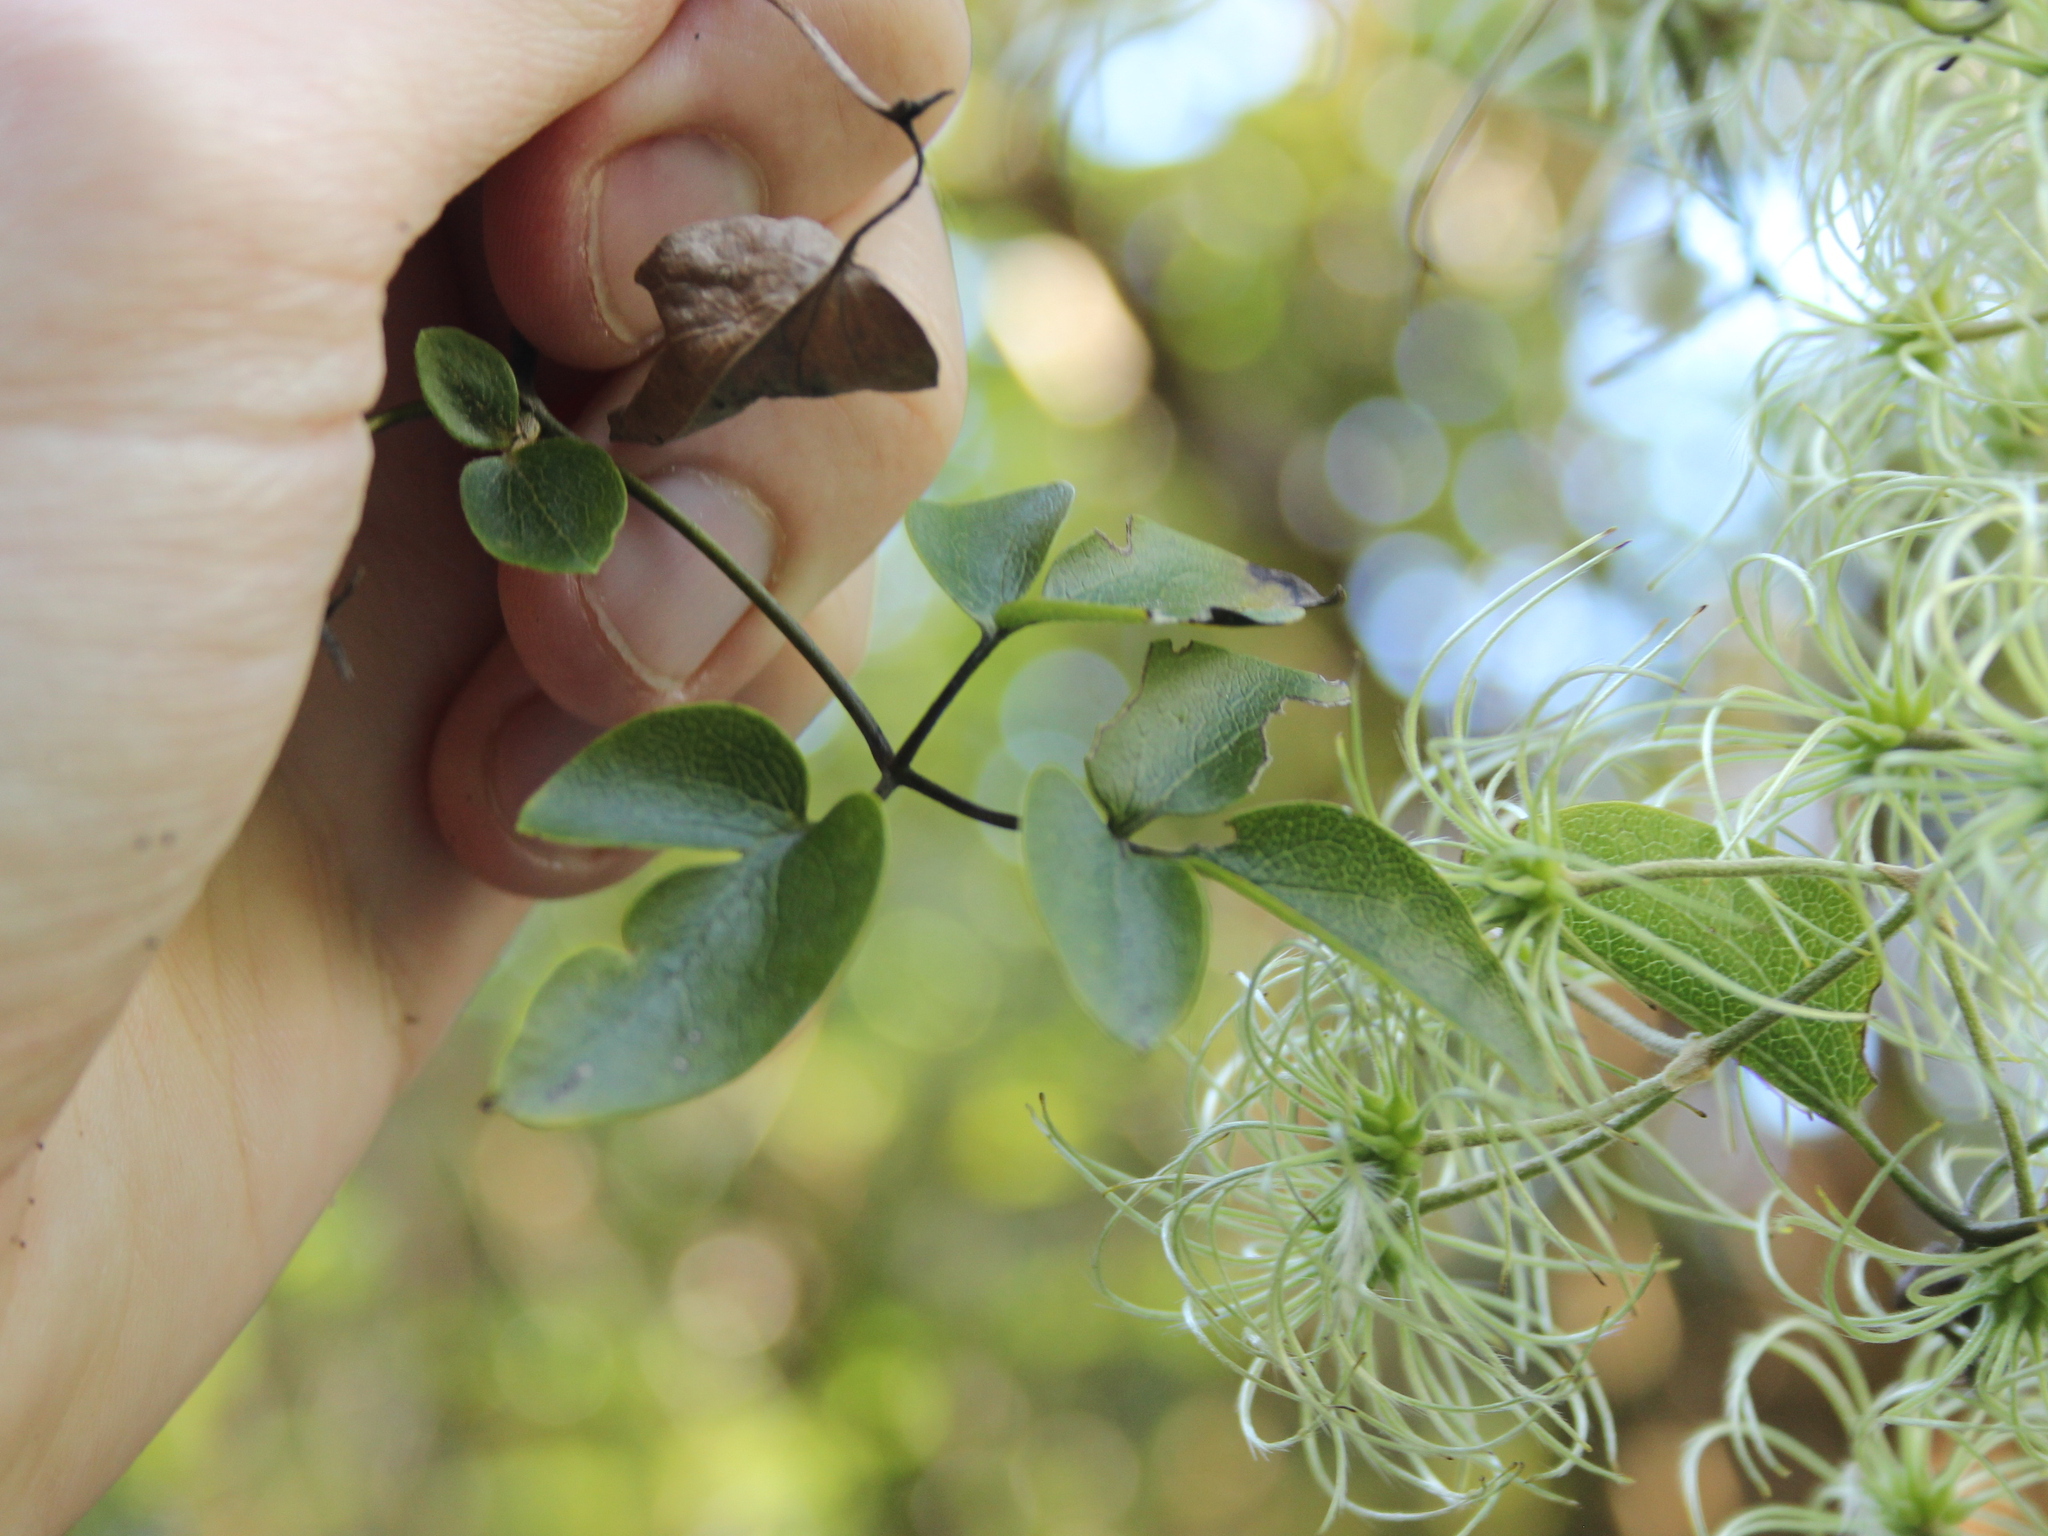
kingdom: Plantae
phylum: Tracheophyta
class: Magnoliopsida
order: Ranunculales
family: Ranunculaceae
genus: Clematis
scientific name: Clematis foetida
